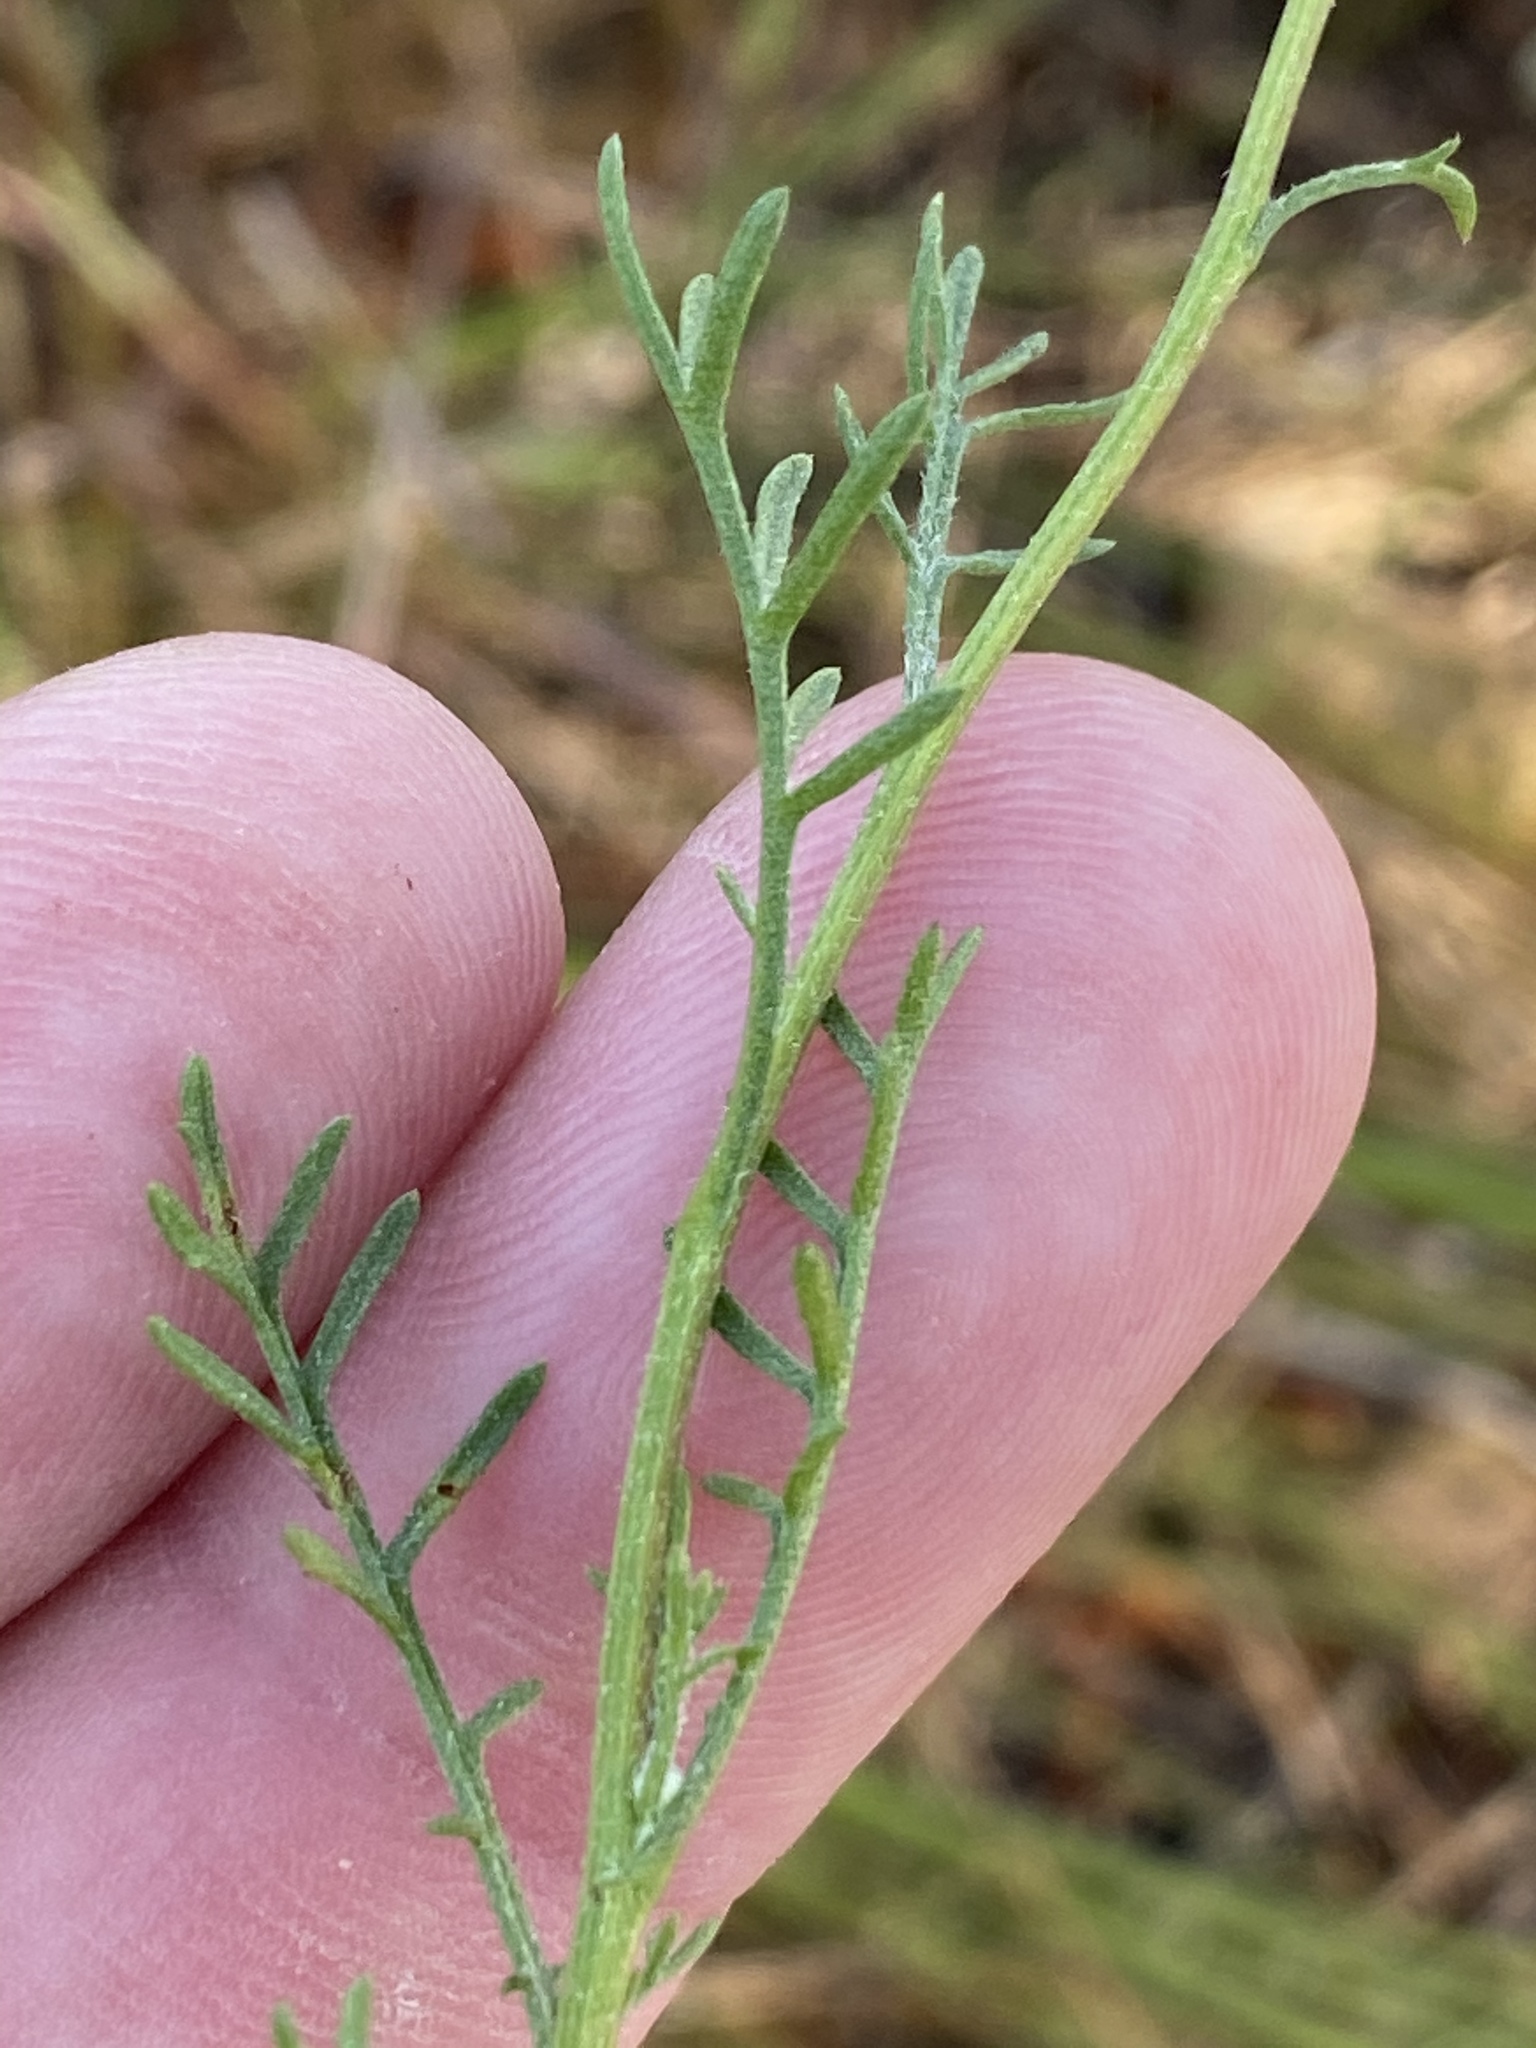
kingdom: Plantae
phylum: Tracheophyta
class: Magnoliopsida
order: Asterales
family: Asteraceae
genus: Ursinia
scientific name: Ursinia anthemoides
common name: Ursinia
